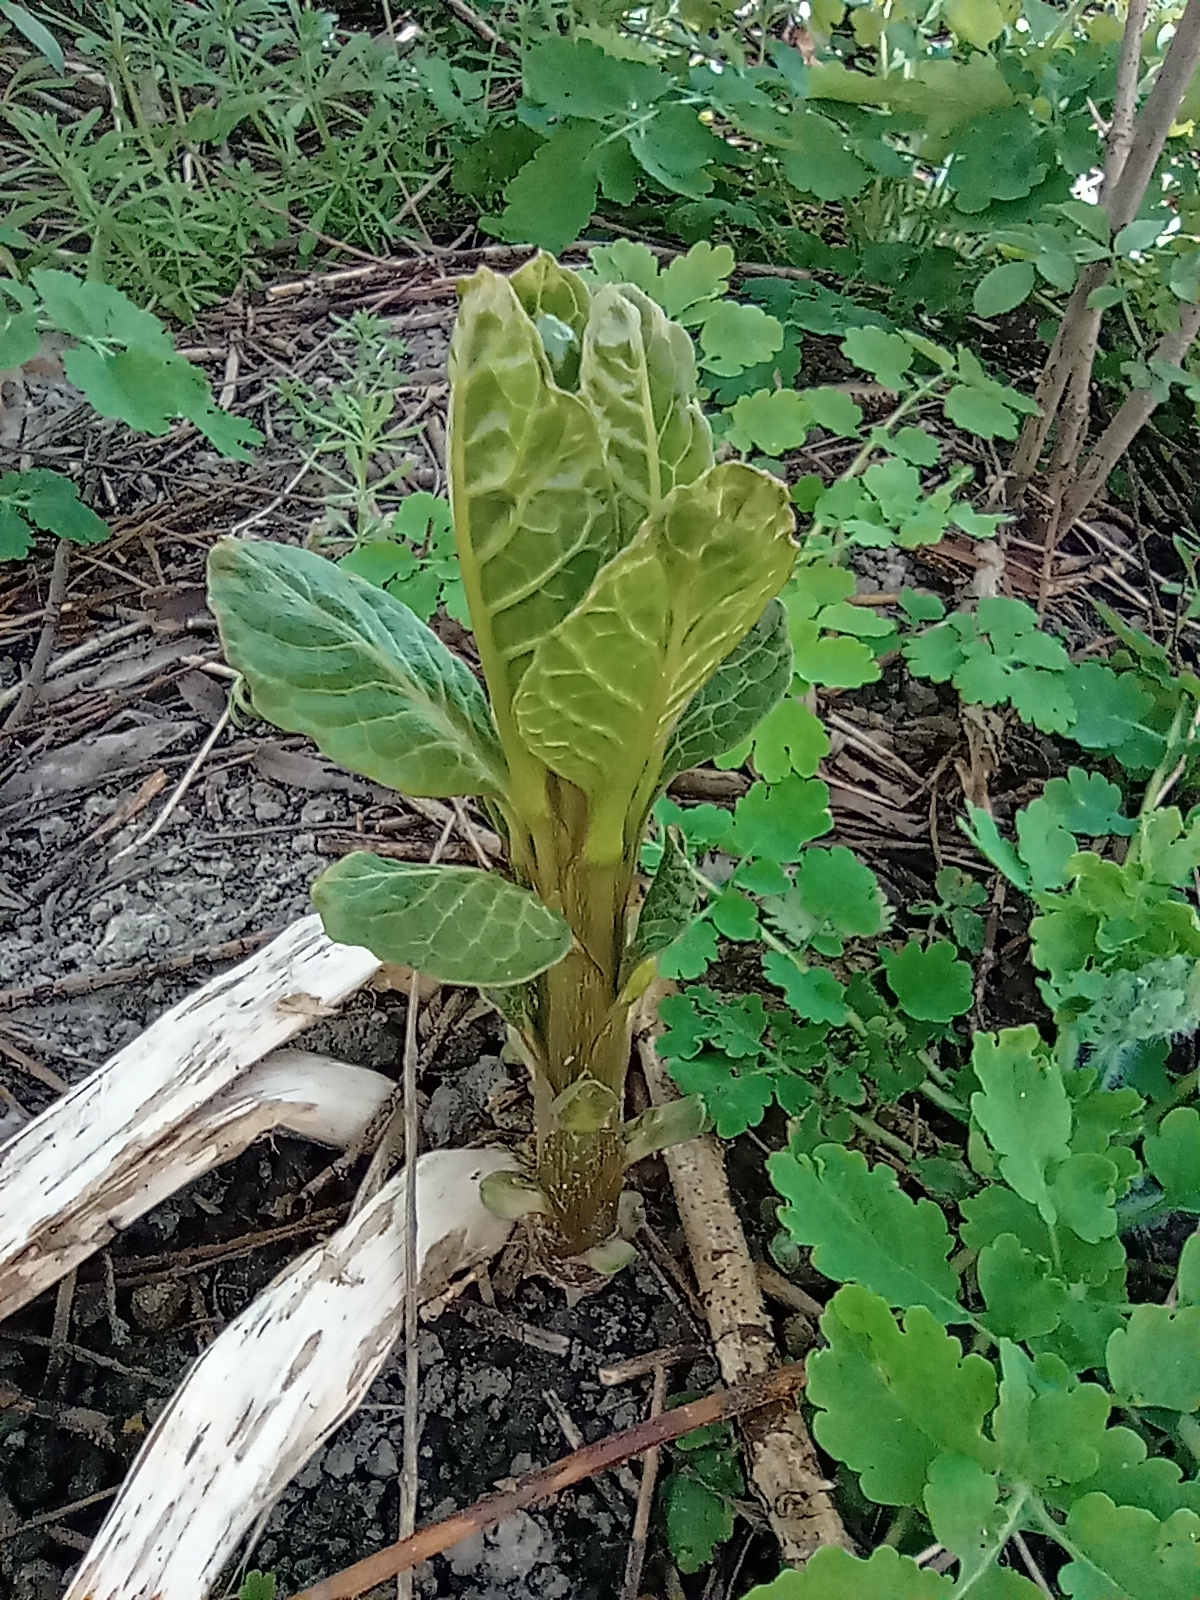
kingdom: Plantae
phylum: Tracheophyta
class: Magnoliopsida
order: Caryophyllales
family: Phytolaccaceae
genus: Phytolacca
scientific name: Phytolacca acinosa
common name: Indian pokeweed
